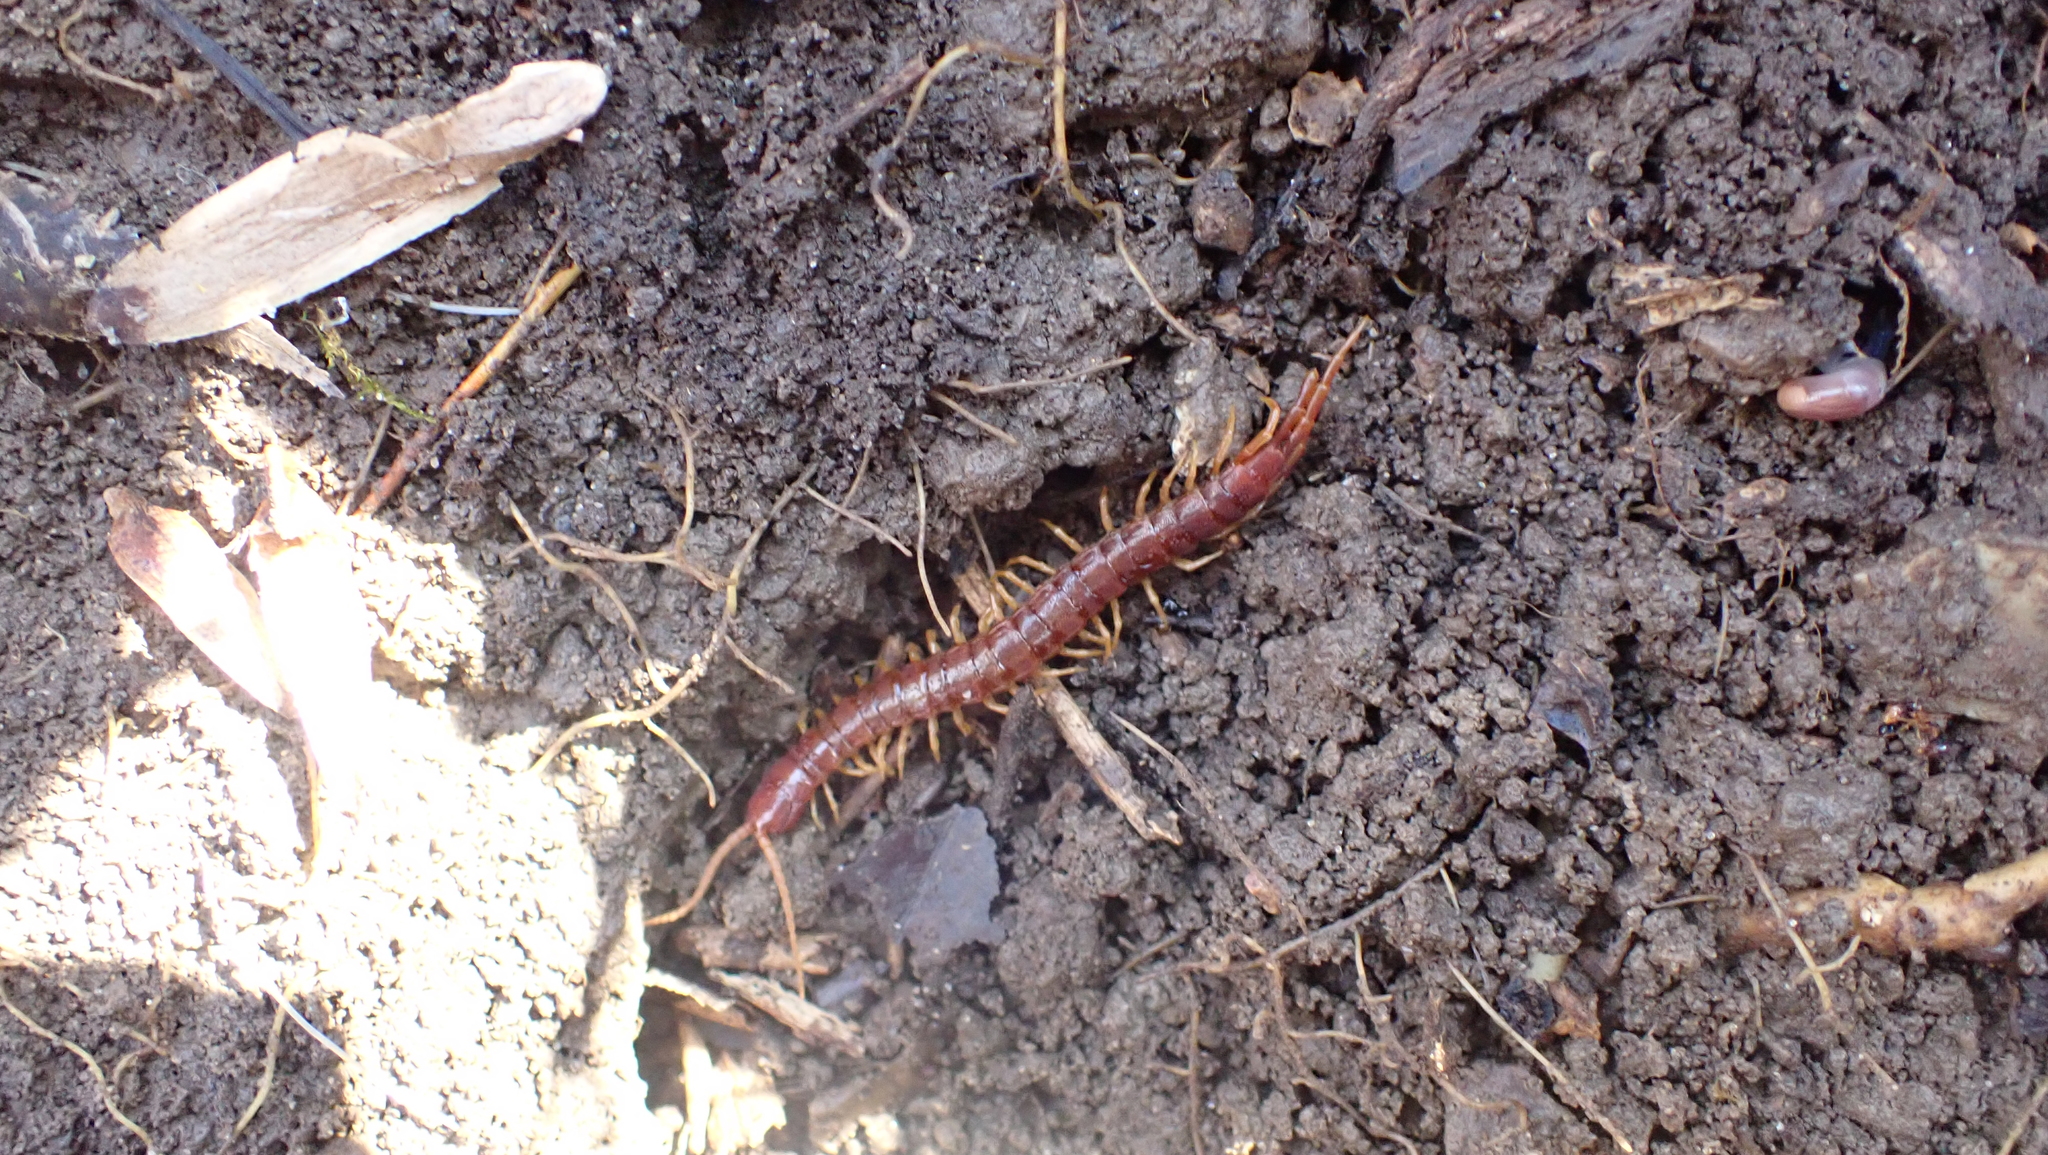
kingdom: Animalia
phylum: Arthropoda
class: Chilopoda
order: Scolopendromorpha
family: Scolopocryptopidae
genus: Scolopocryptops
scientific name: Scolopocryptops sexspinosus
